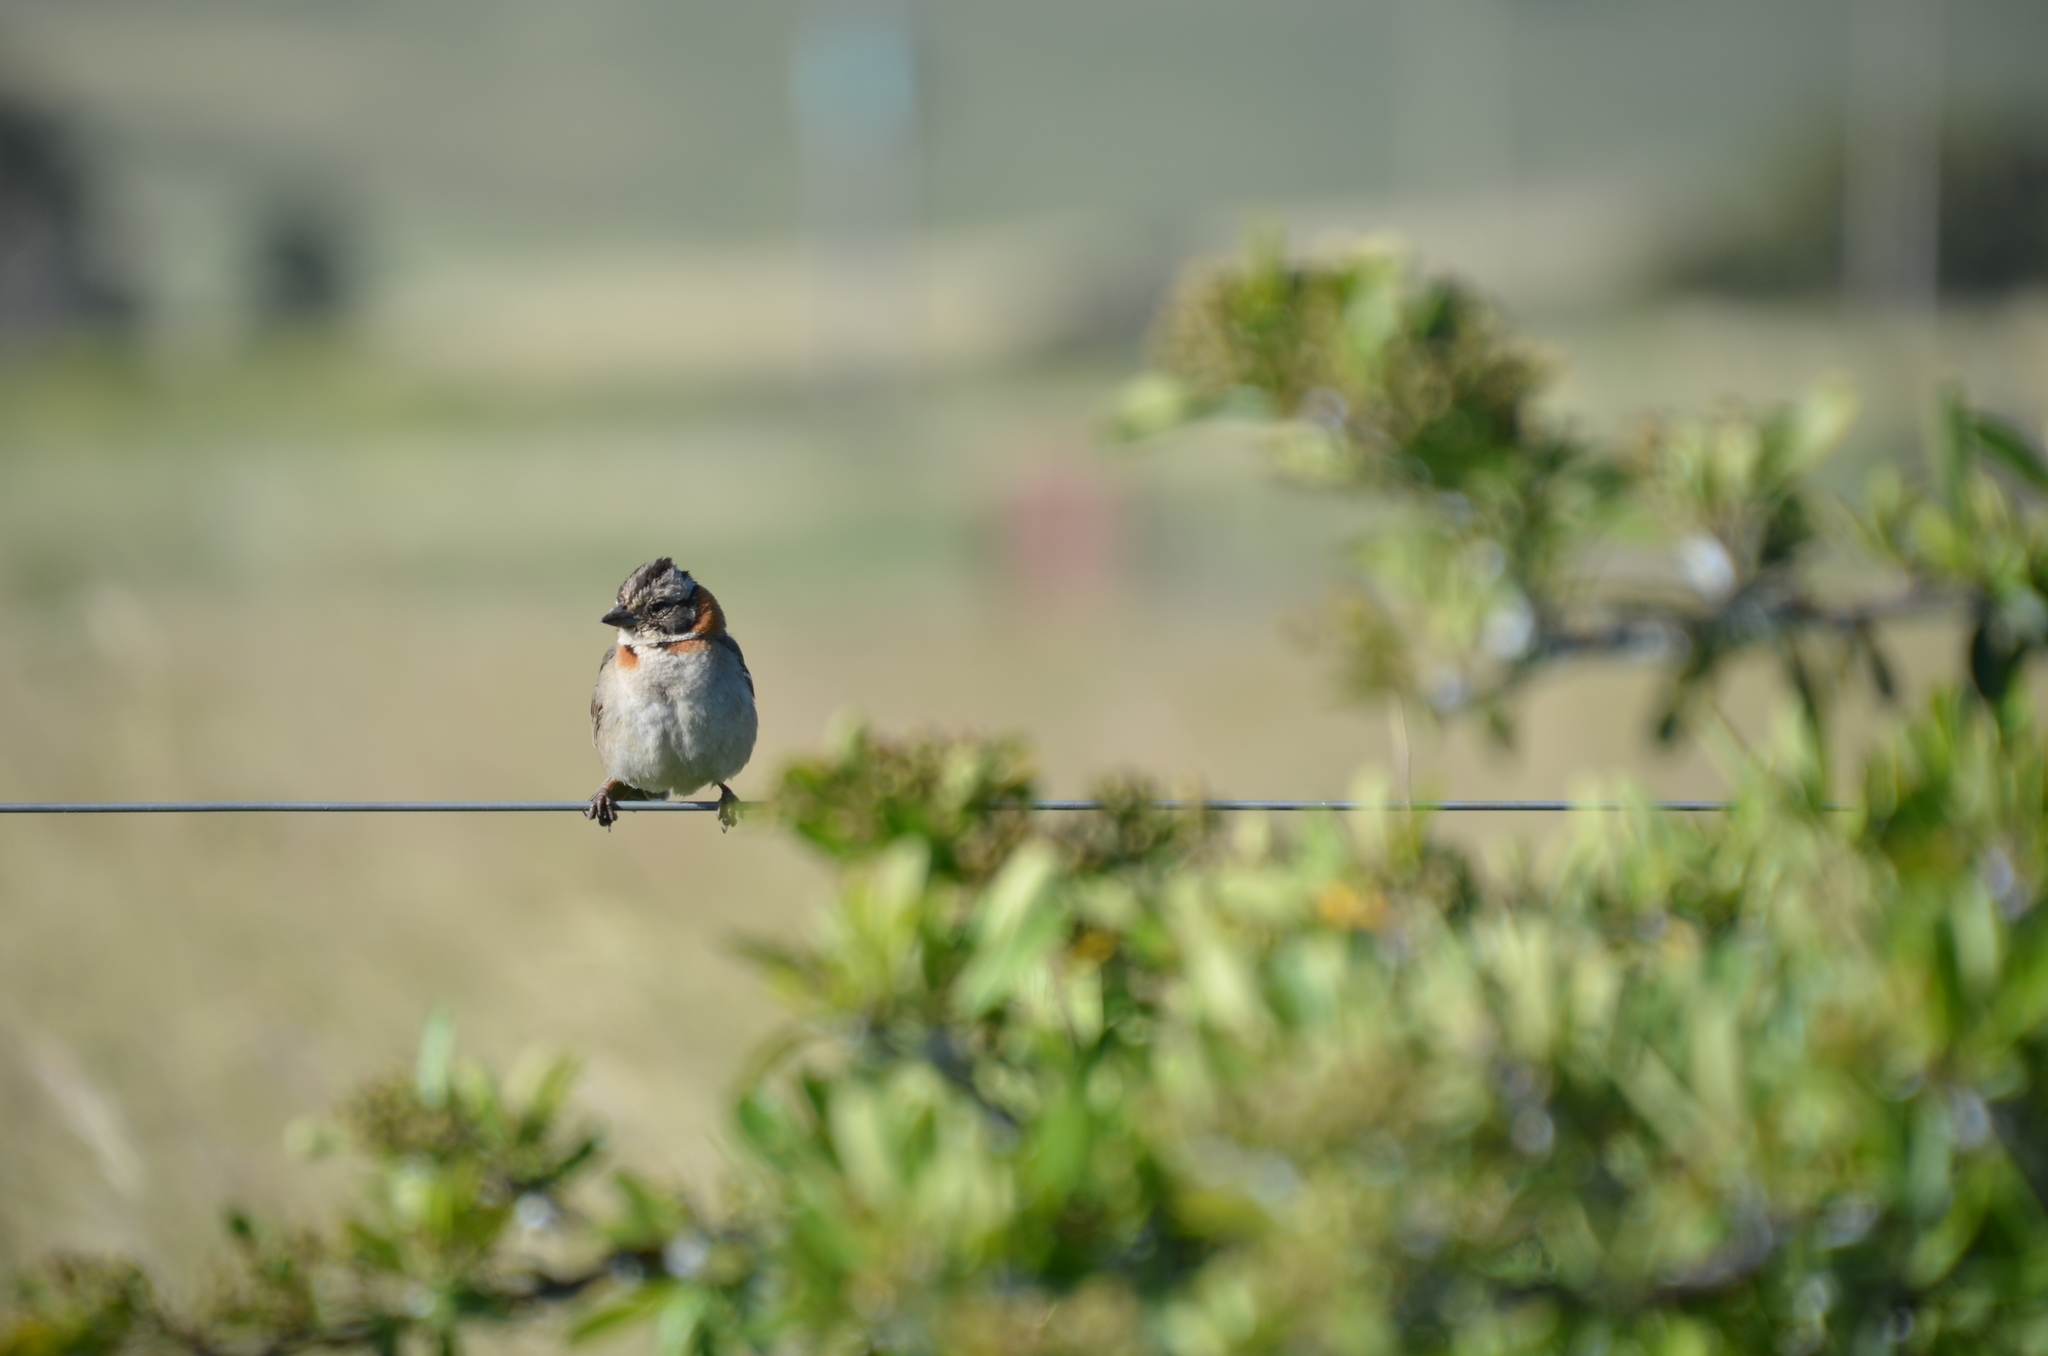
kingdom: Animalia
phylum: Chordata
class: Aves
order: Passeriformes
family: Passerellidae
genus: Zonotrichia
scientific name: Zonotrichia capensis
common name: Rufous-collared sparrow
